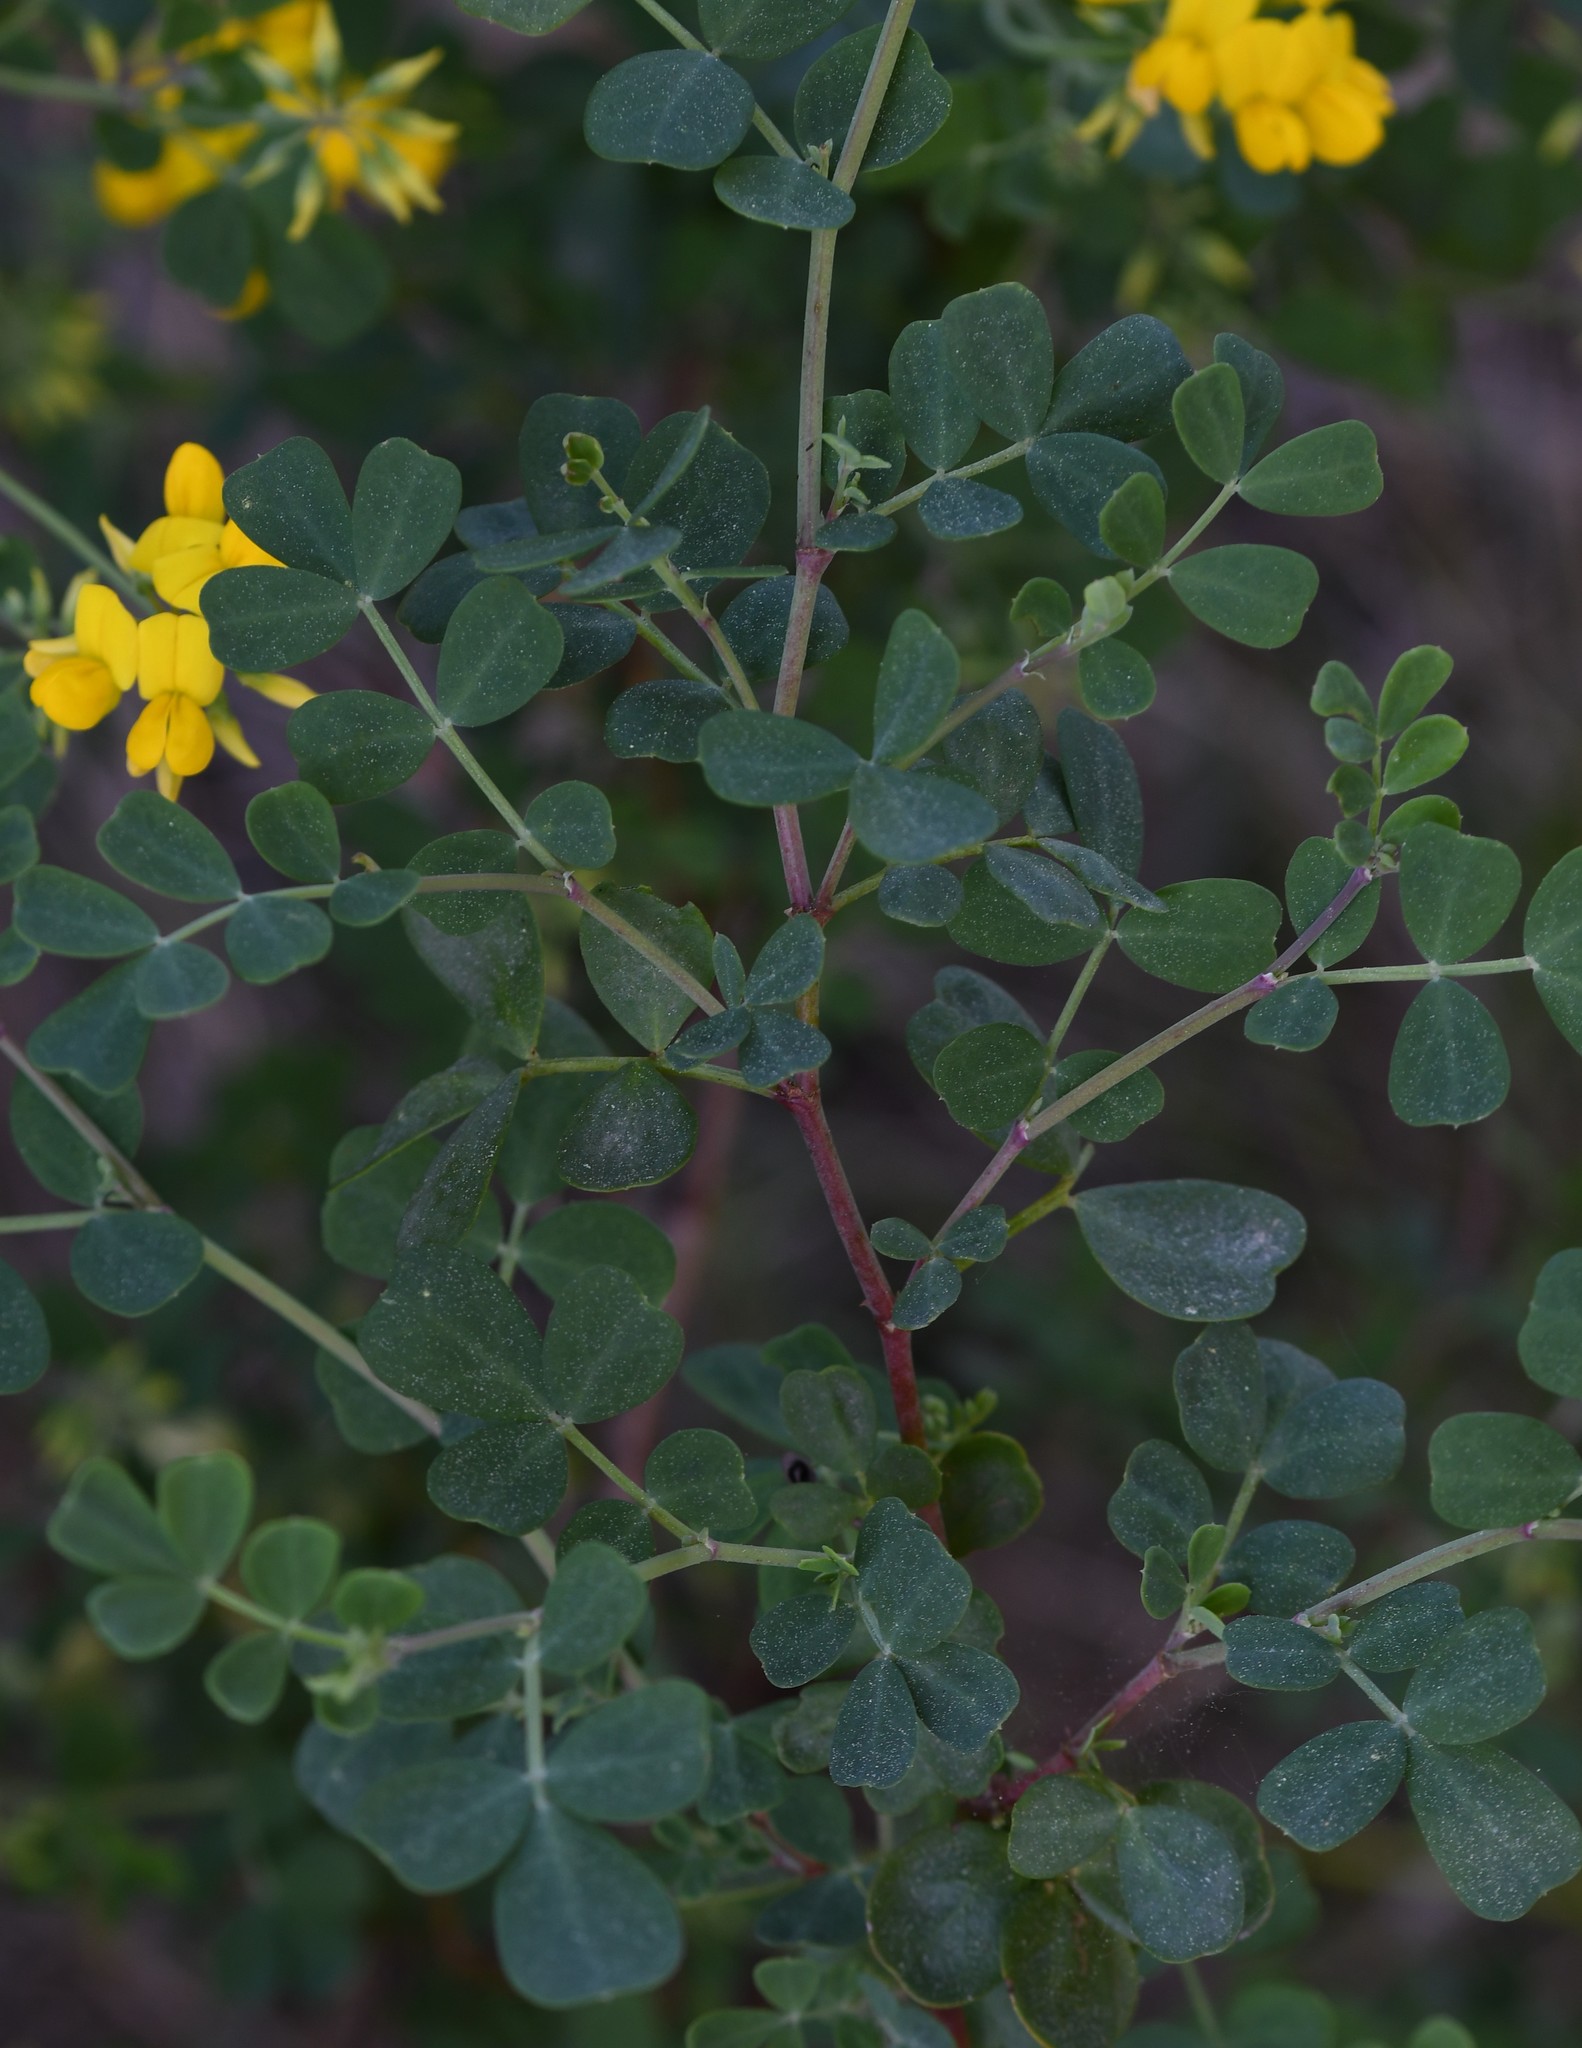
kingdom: Plantae
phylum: Tracheophyta
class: Magnoliopsida
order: Fabales
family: Fabaceae
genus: Coronilla
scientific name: Coronilla valentina
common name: Shrubby scorpion-vetch
